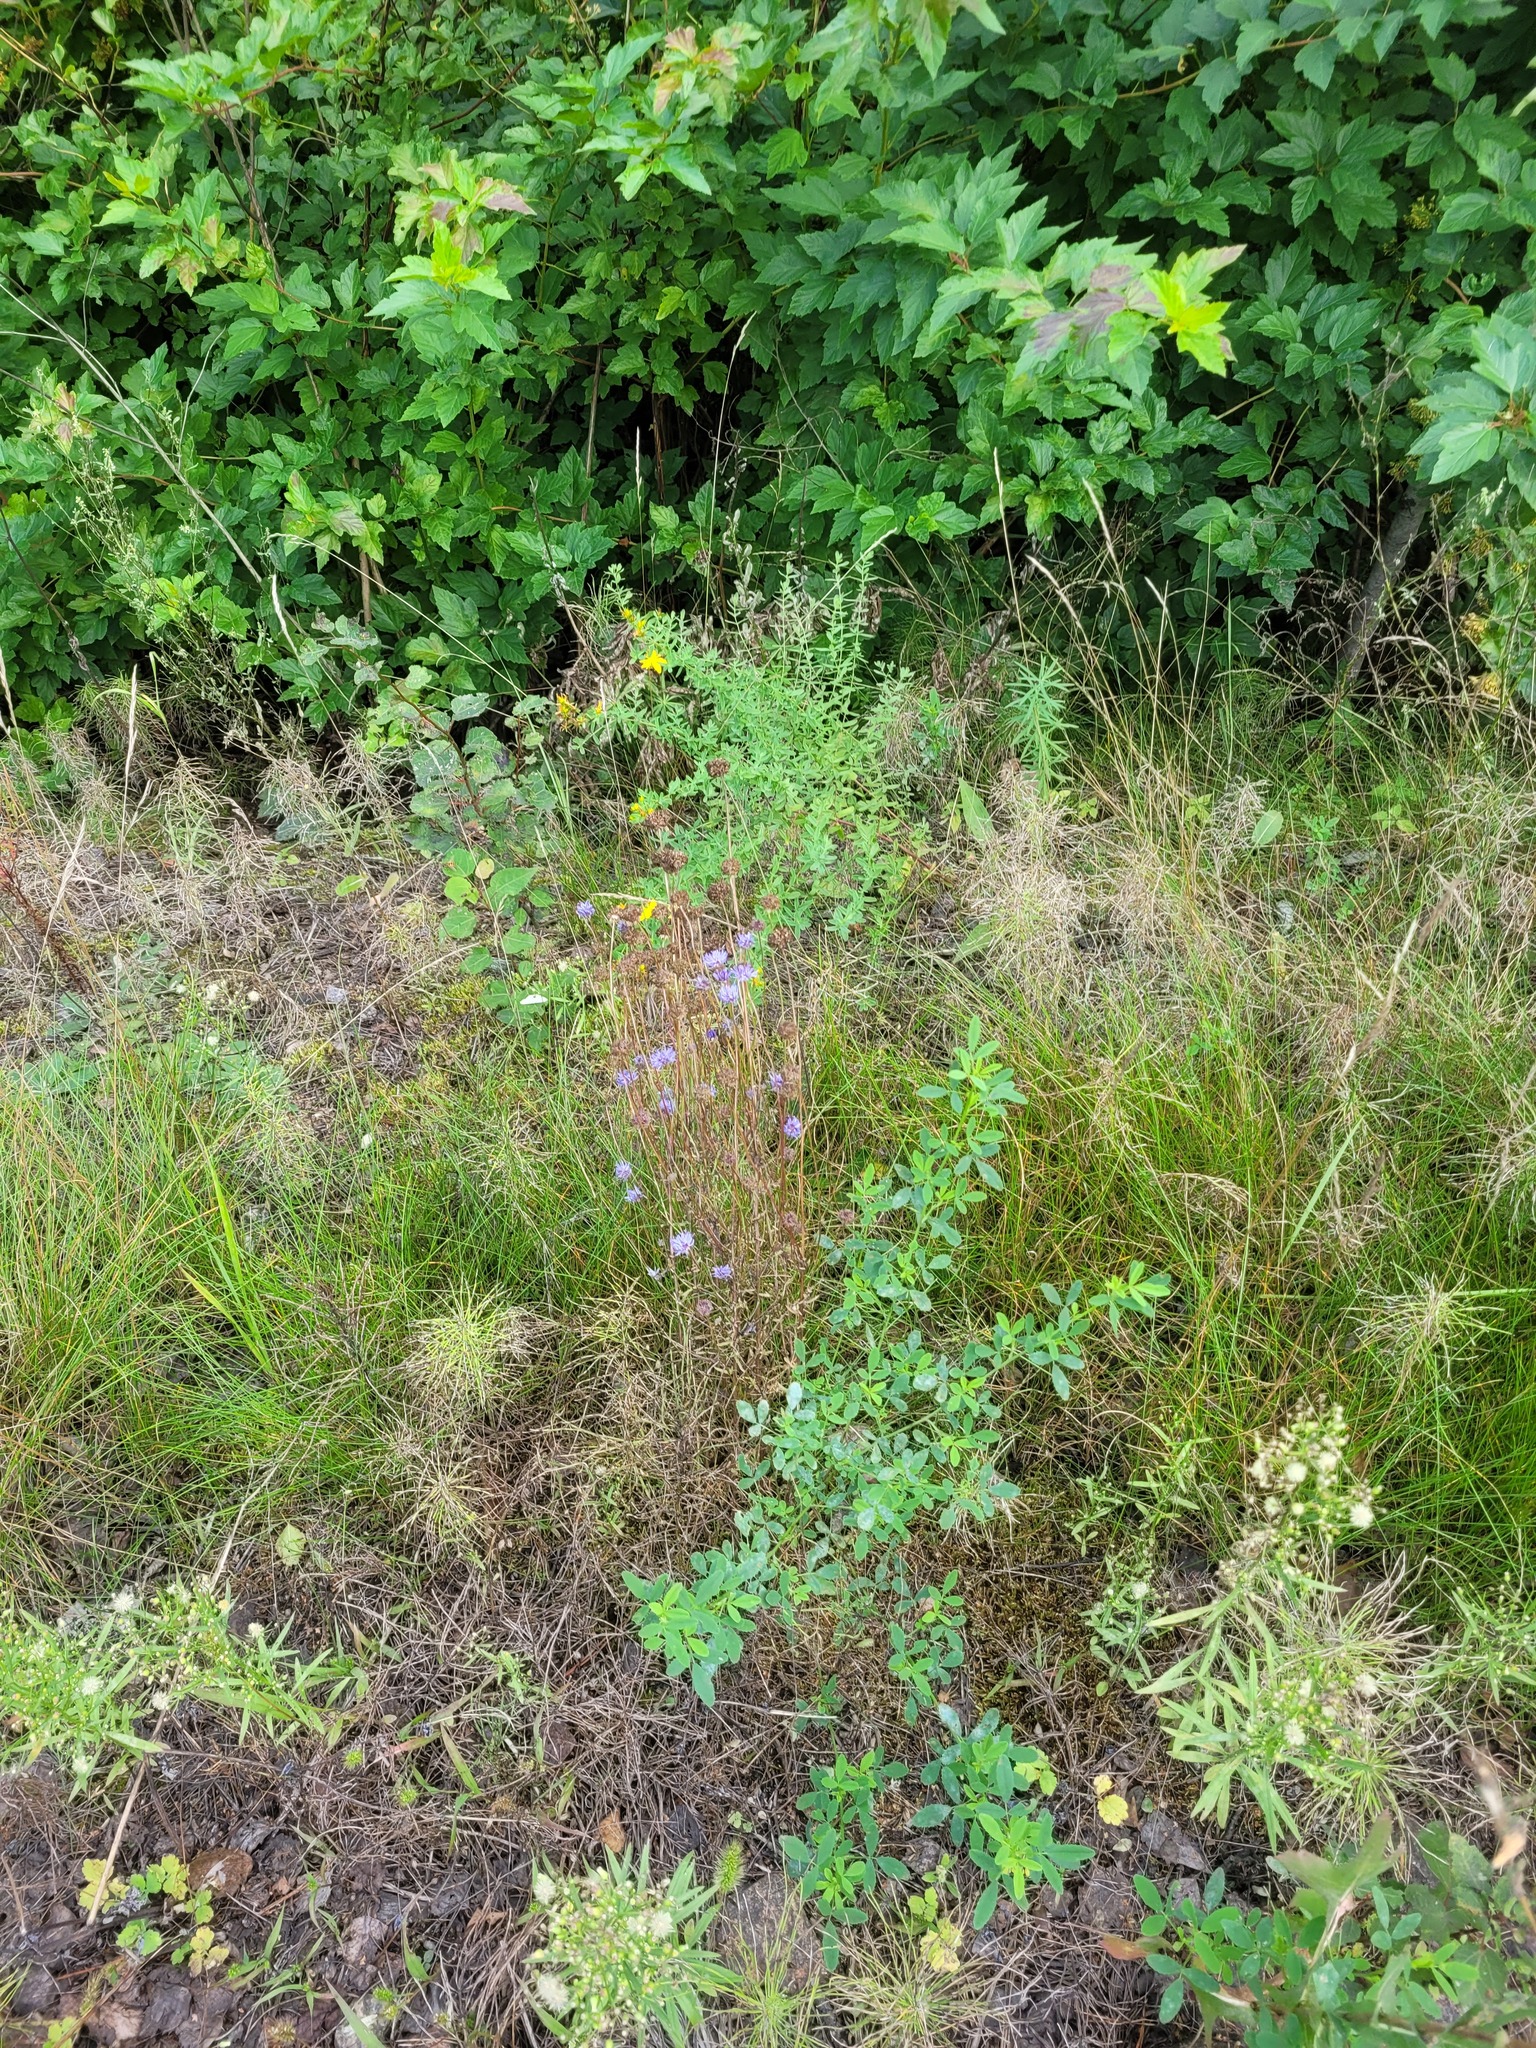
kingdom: Plantae
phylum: Tracheophyta
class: Magnoliopsida
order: Asterales
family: Campanulaceae
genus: Jasione
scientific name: Jasione montana
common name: Sheep's-bit
